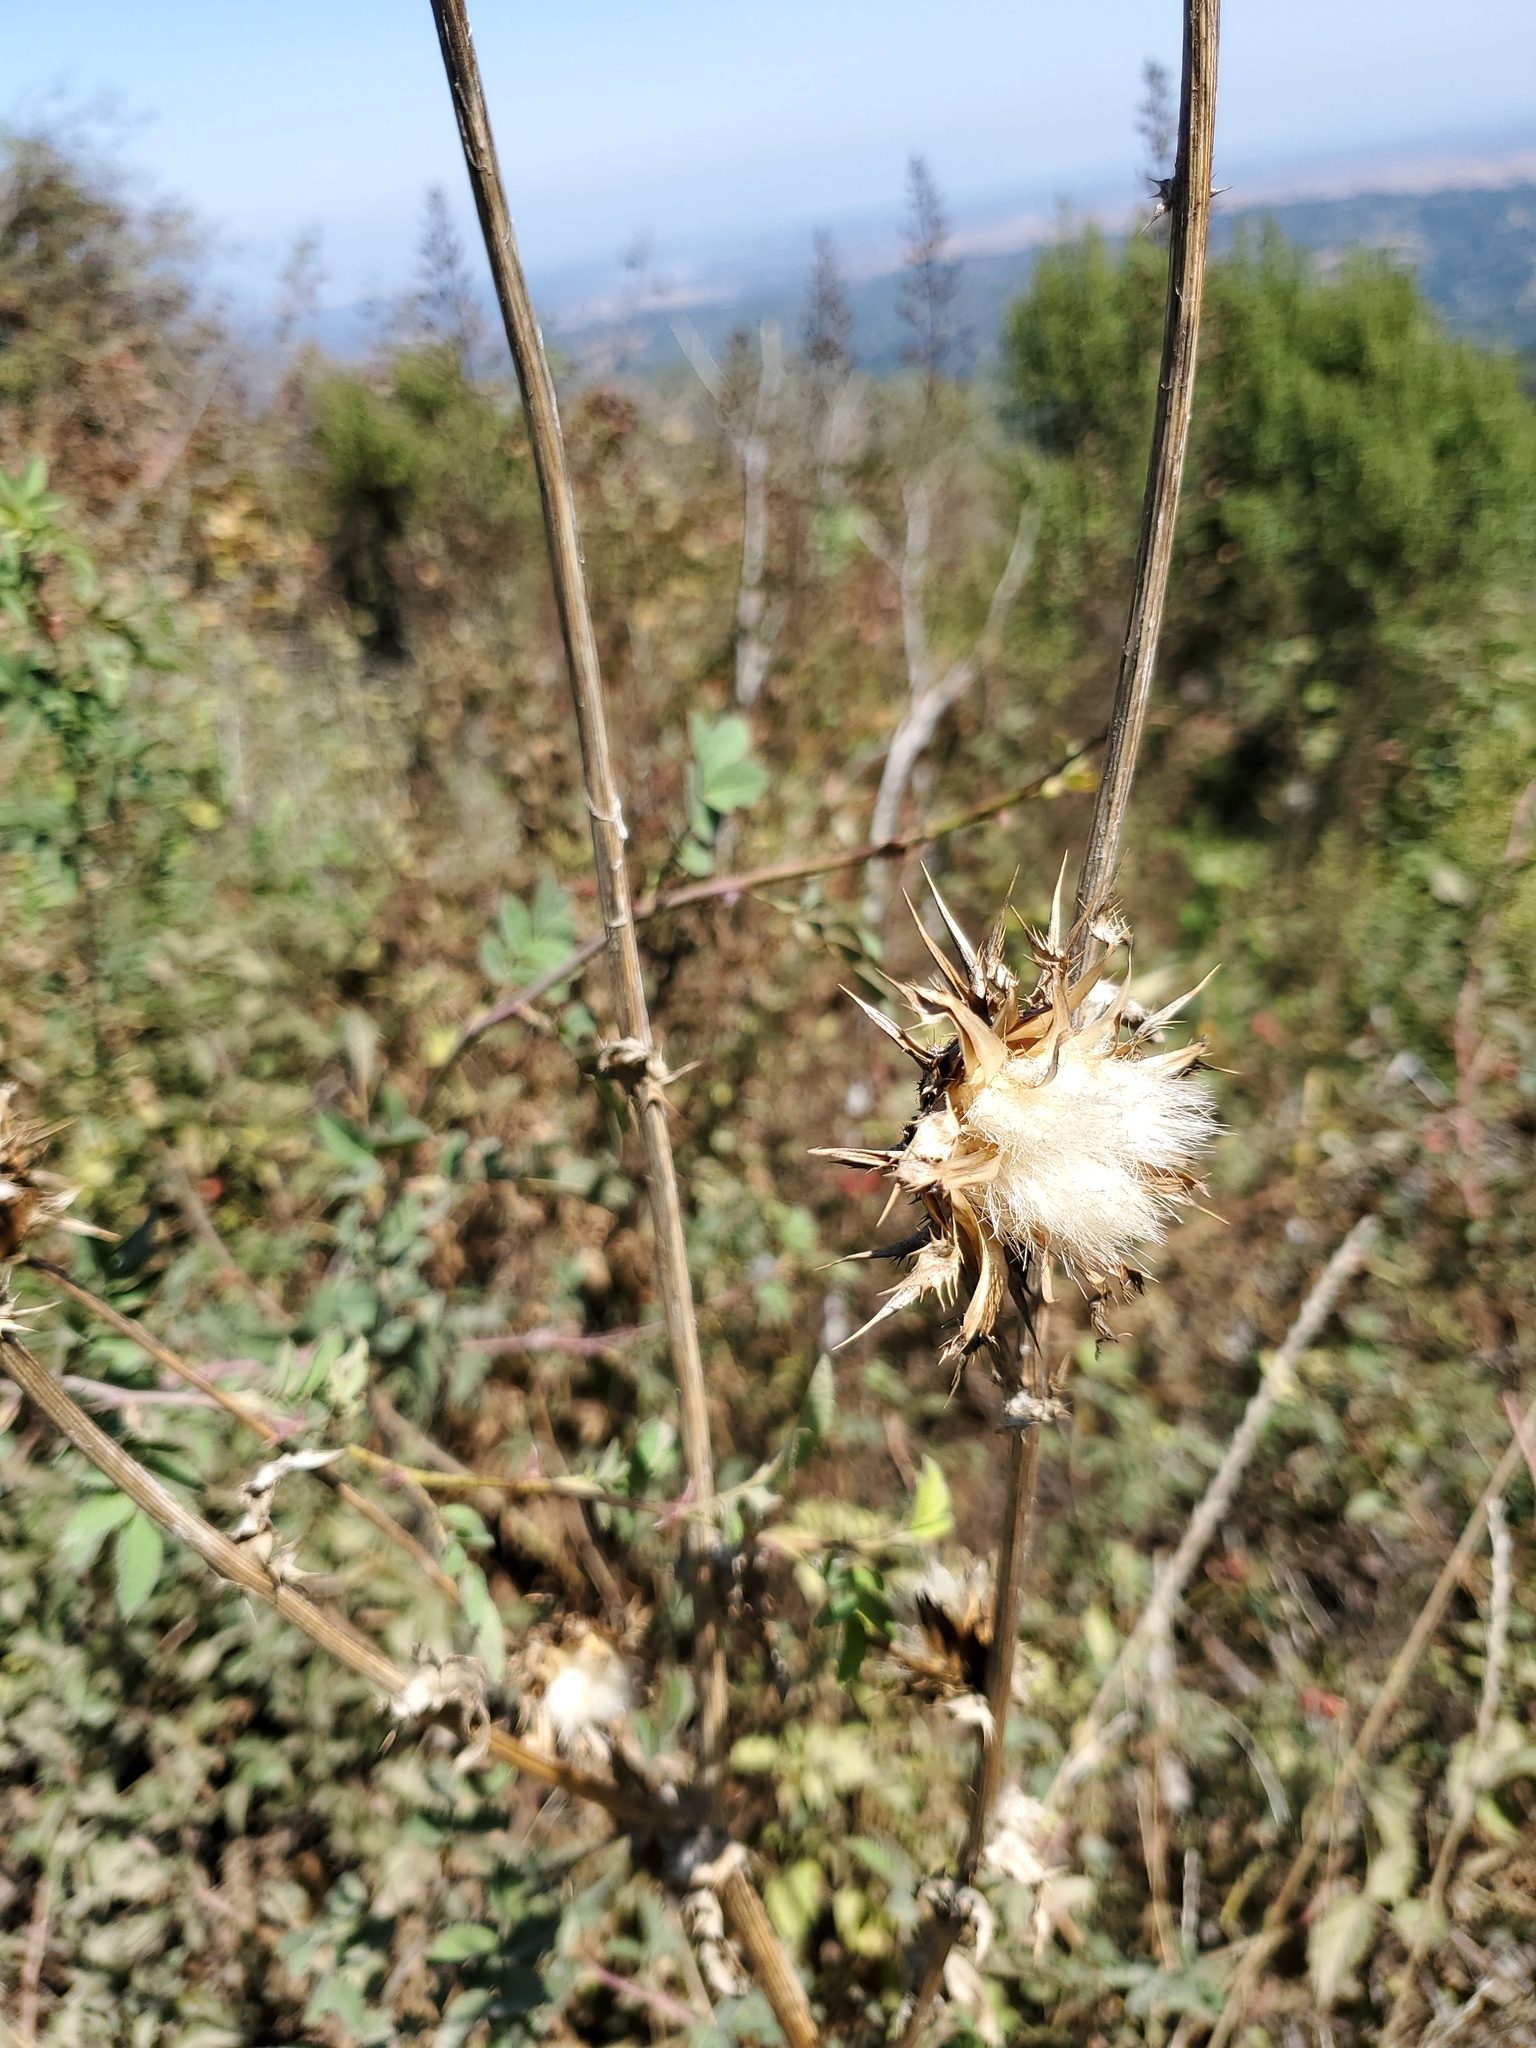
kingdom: Plantae
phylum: Tracheophyta
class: Magnoliopsida
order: Asterales
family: Asteraceae
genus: Silybum
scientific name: Silybum marianum
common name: Milk thistle
